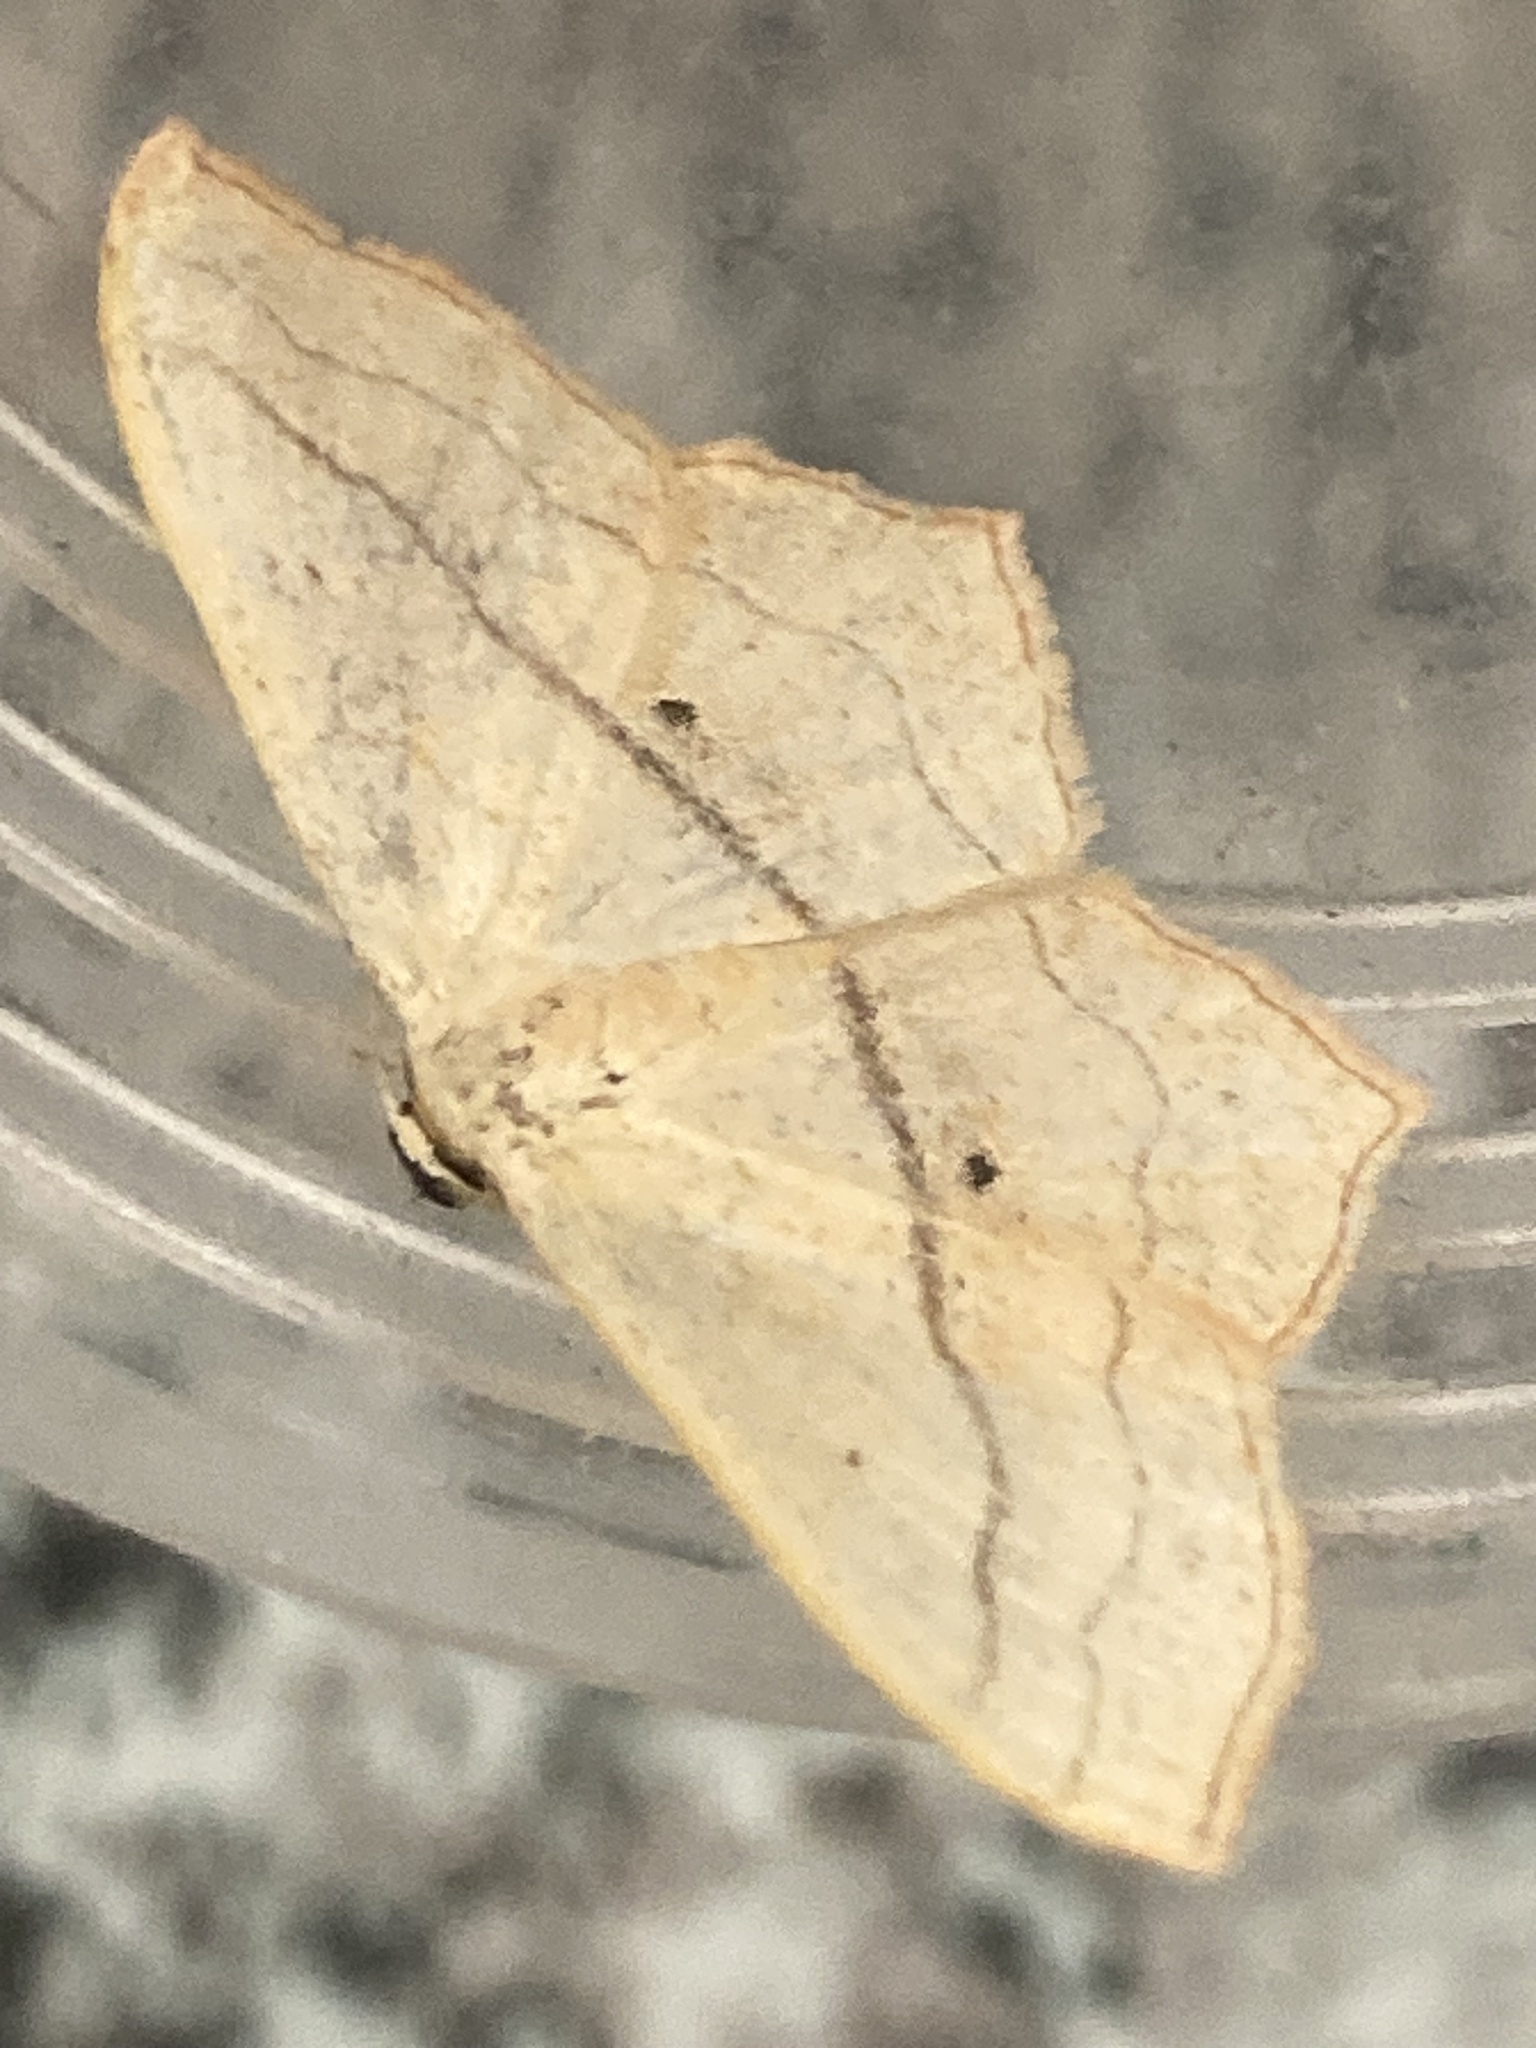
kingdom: Animalia
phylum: Arthropoda
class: Insecta
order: Lepidoptera
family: Geometridae
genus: Scopula
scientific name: Scopula imitaria
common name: Small blood-vein
